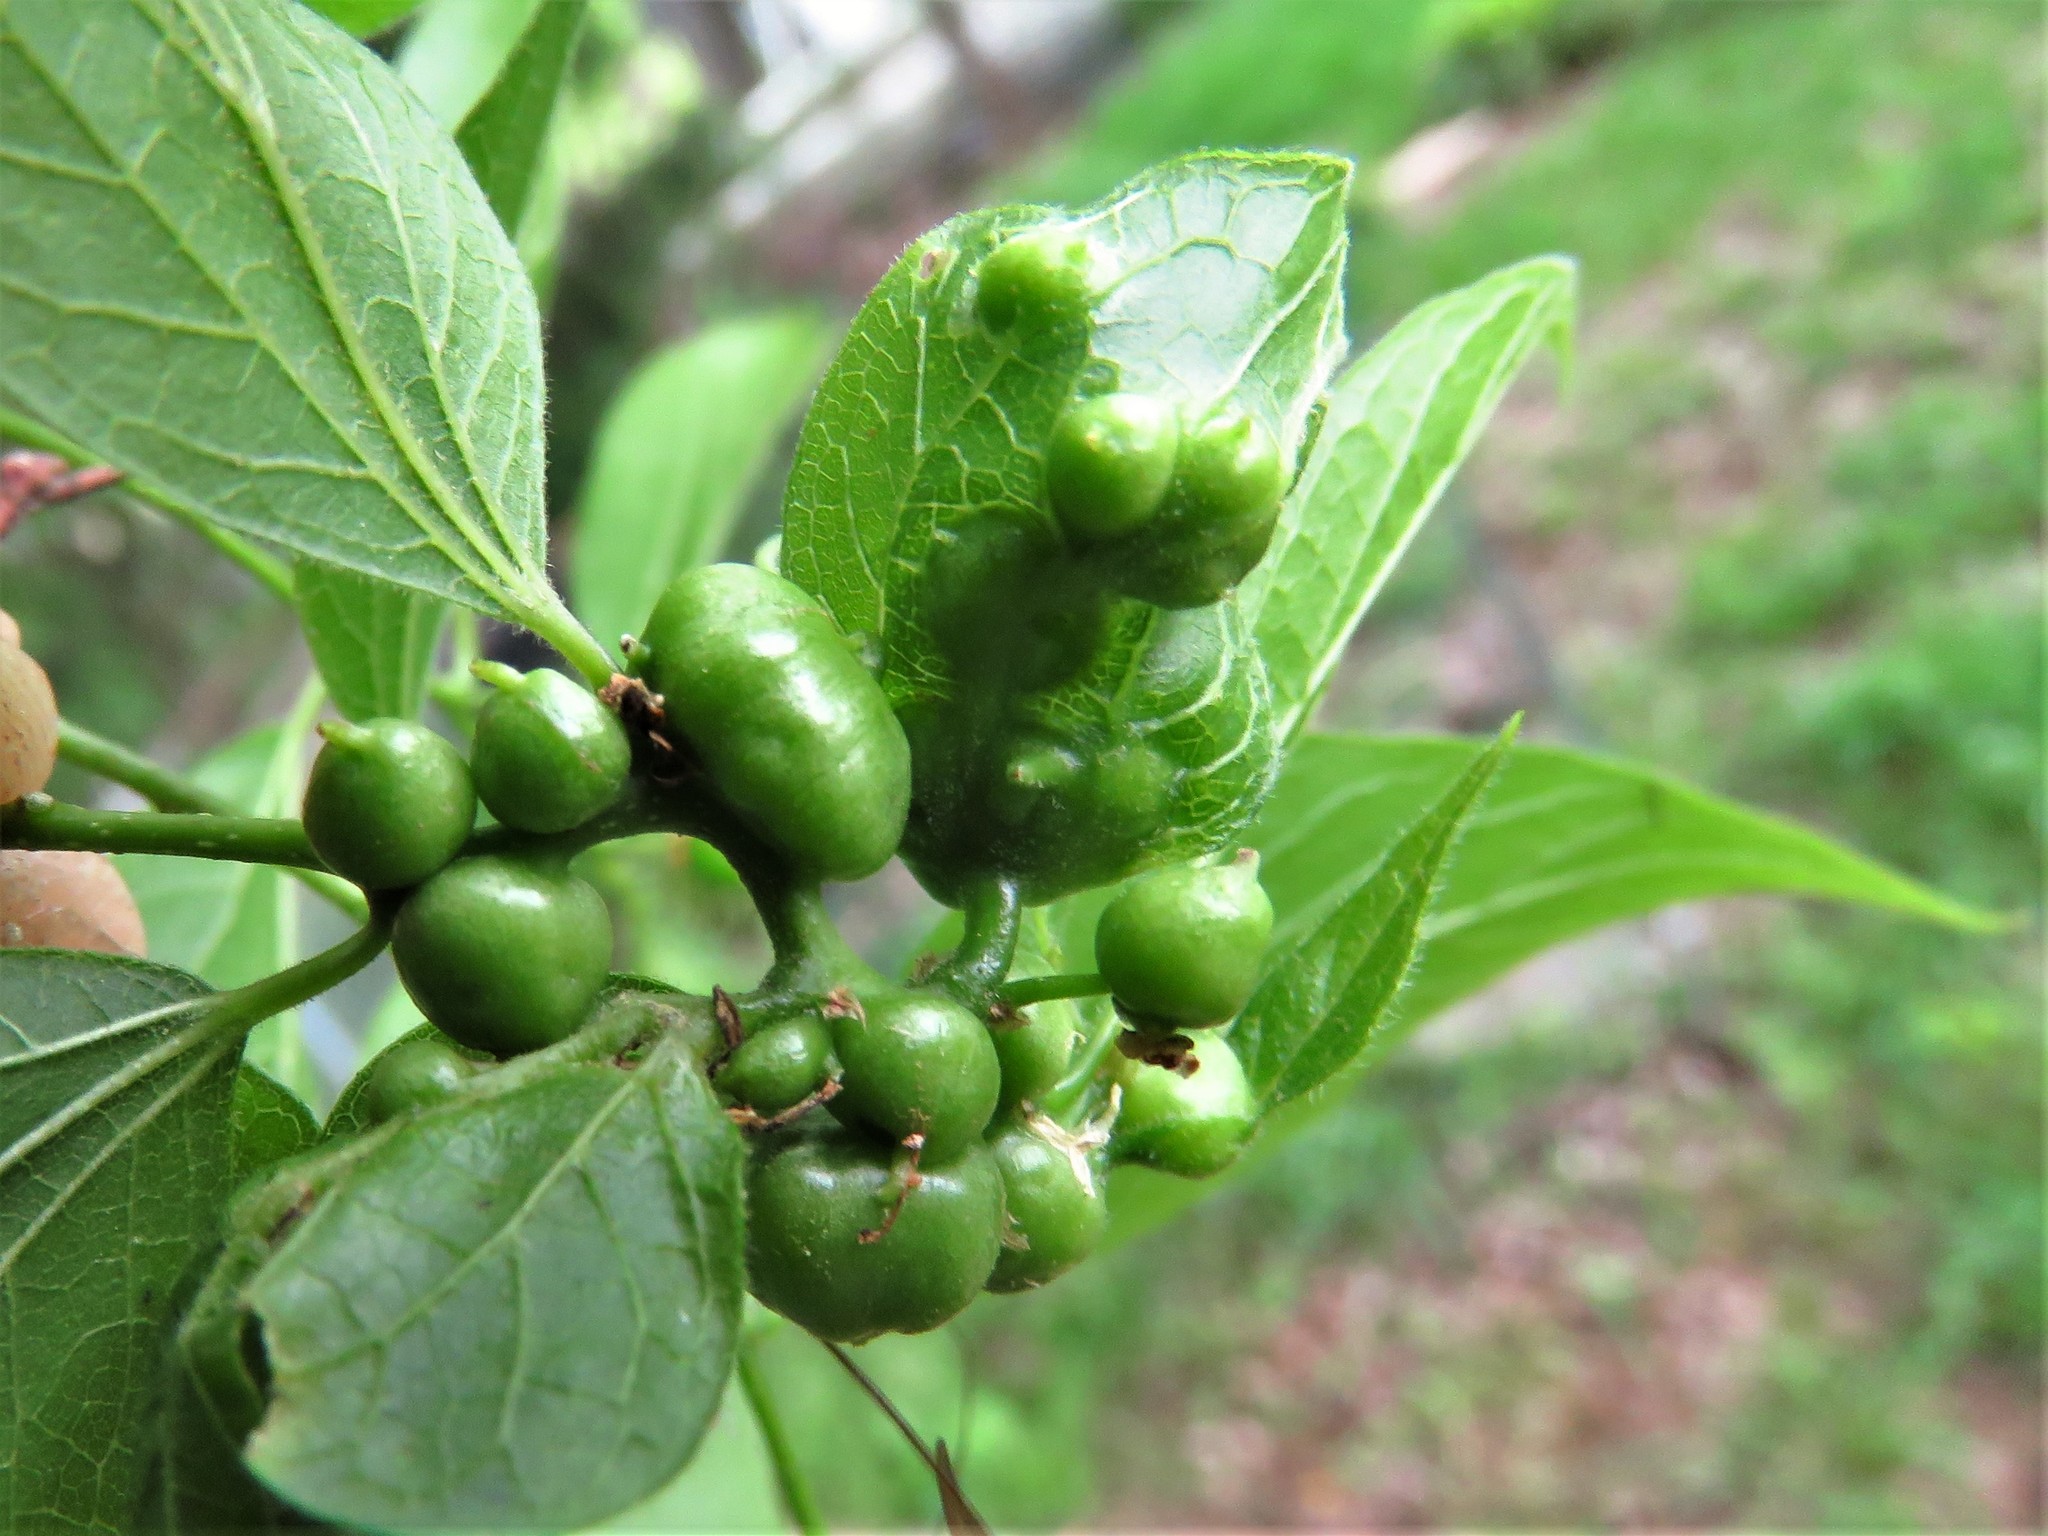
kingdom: Animalia
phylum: Arthropoda
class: Insecta
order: Diptera
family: Cecidomyiidae
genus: Celticecis
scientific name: Celticecis connata
